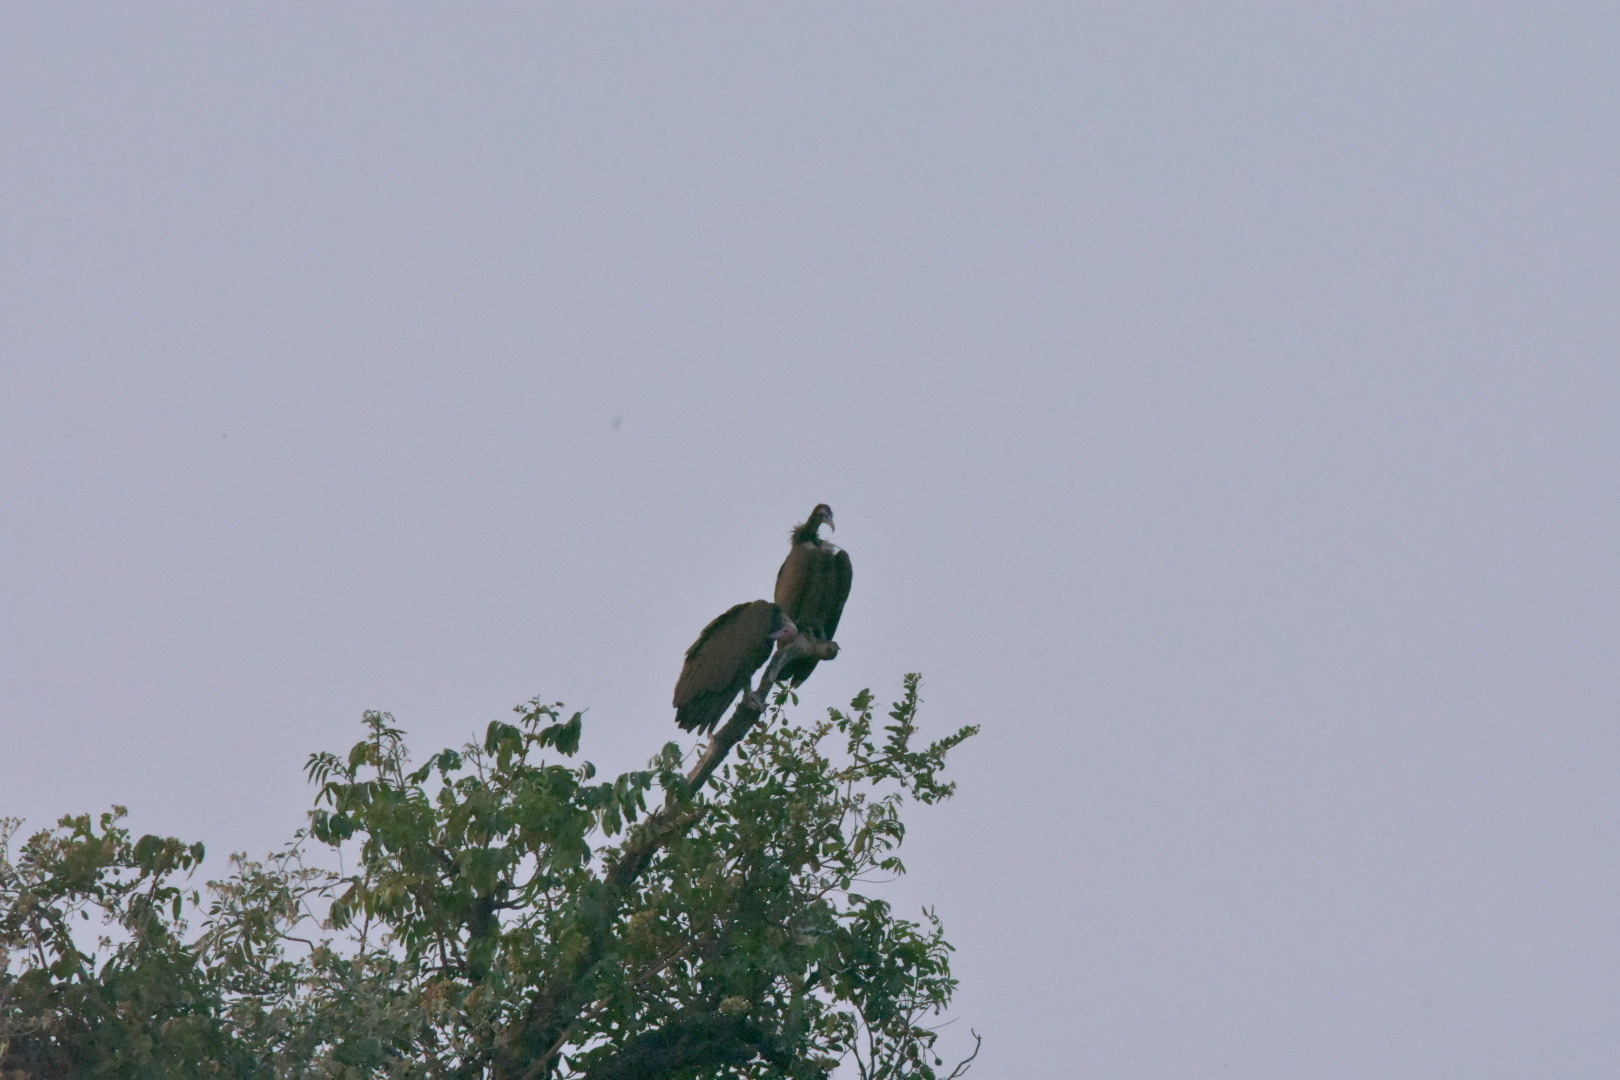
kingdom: Animalia
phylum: Chordata
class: Aves
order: Accipitriformes
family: Accipitridae
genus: Necrosyrtes
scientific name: Necrosyrtes monachus
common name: Hooded vulture
